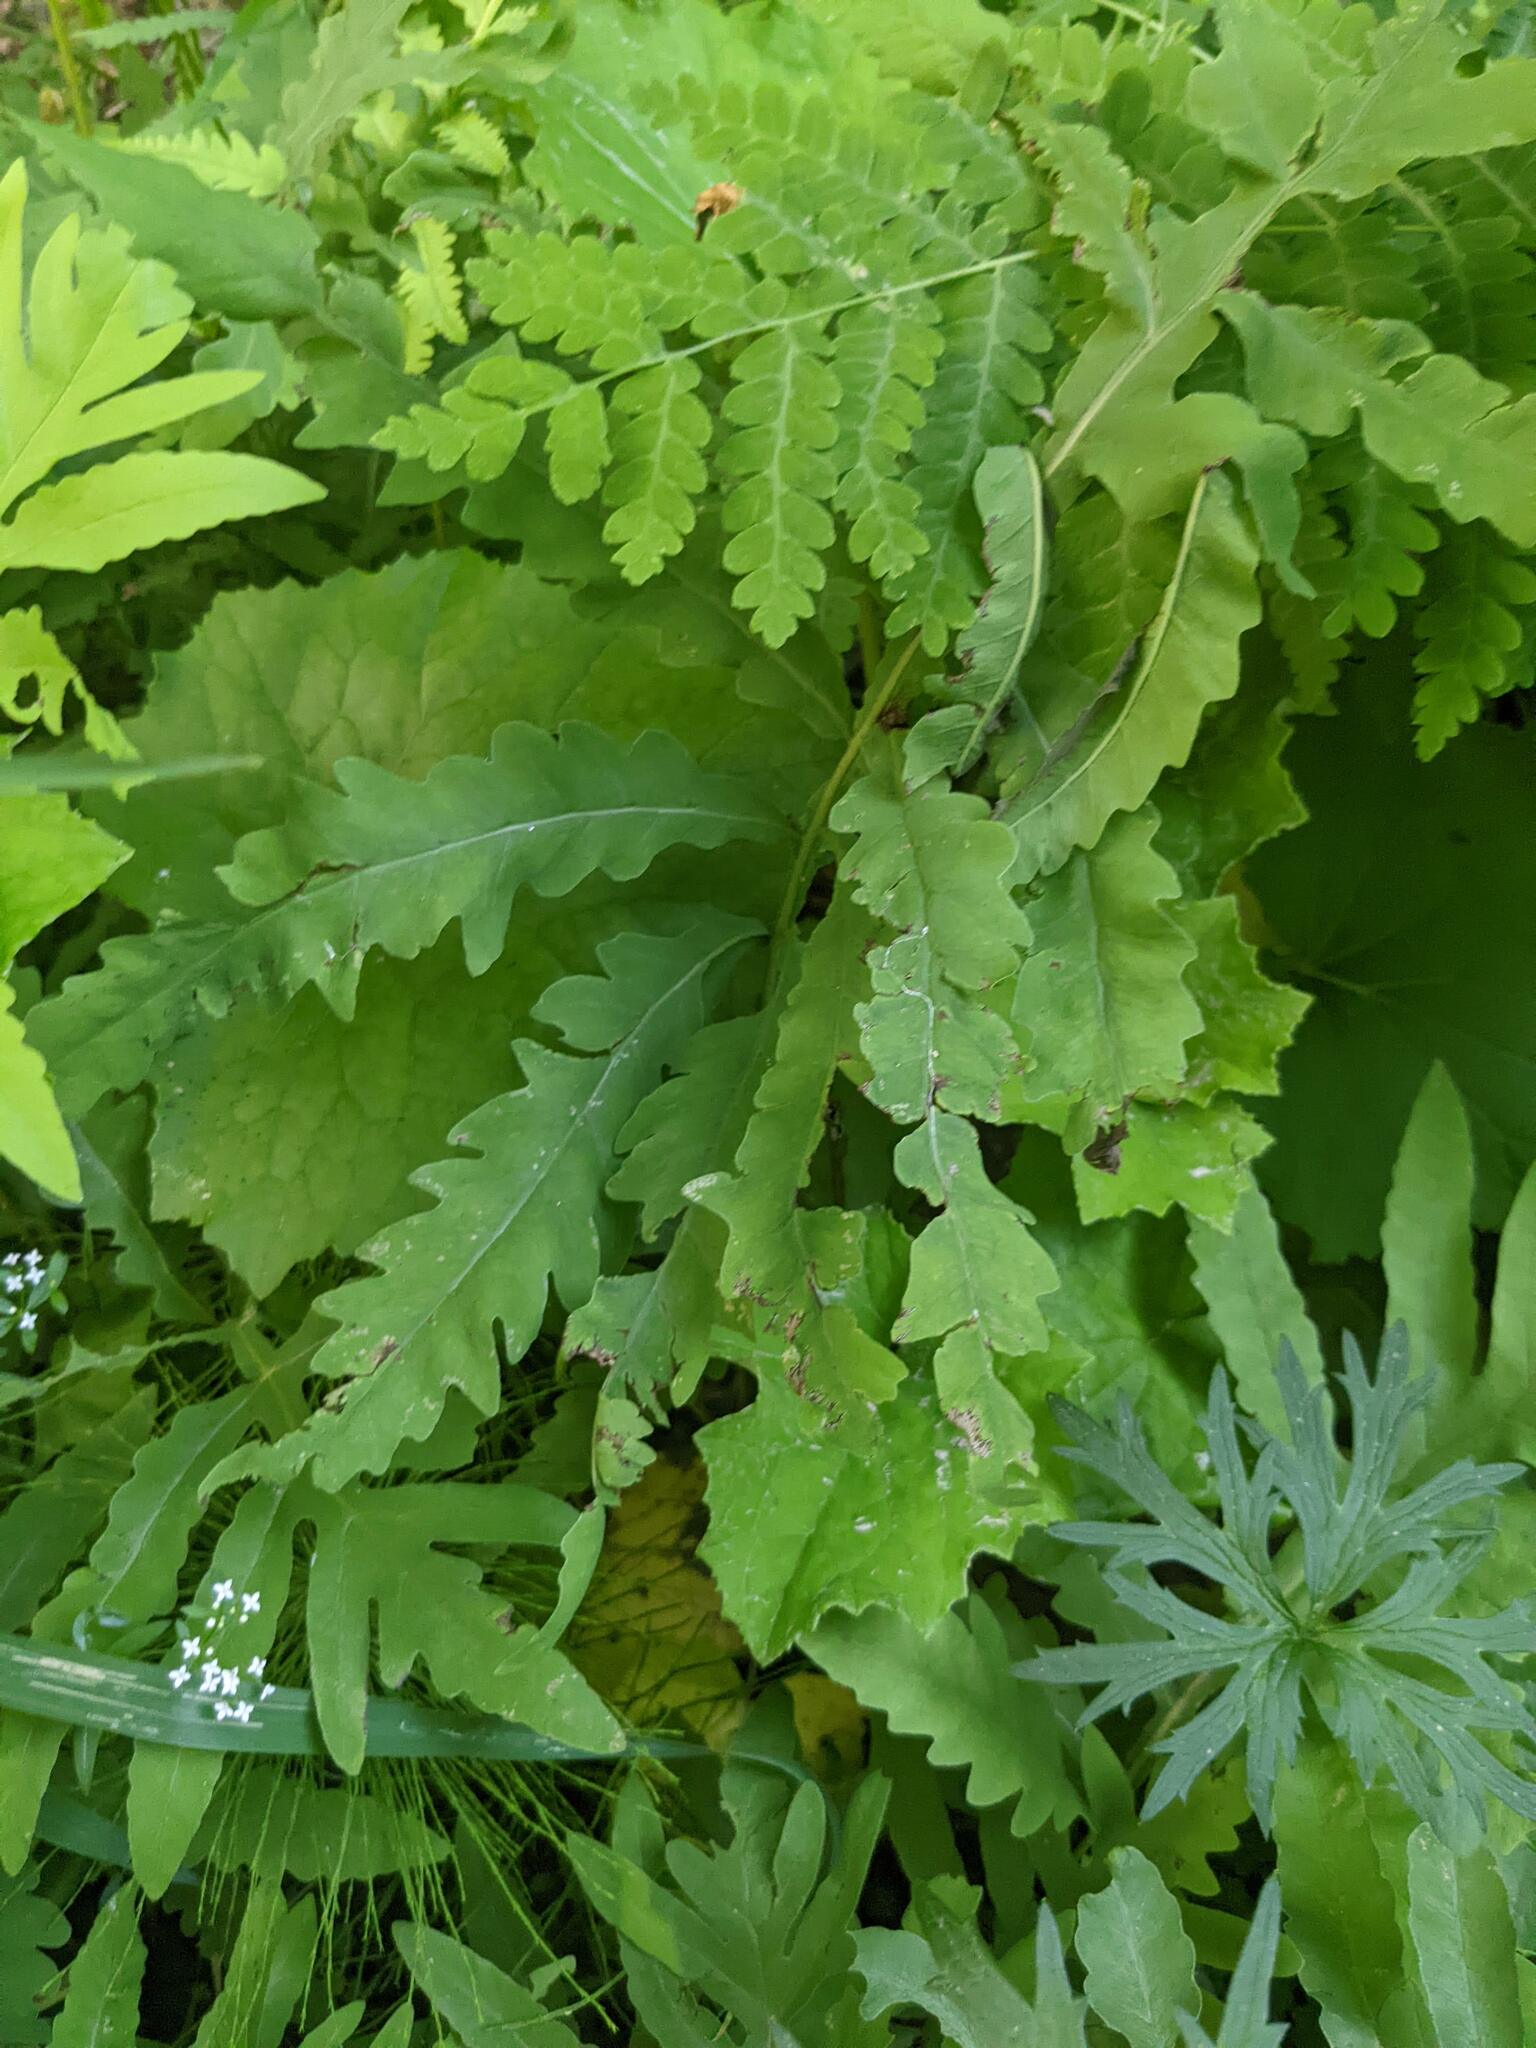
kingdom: Plantae
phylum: Tracheophyta
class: Polypodiopsida
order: Polypodiales
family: Onocleaceae
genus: Onoclea
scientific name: Onoclea sensibilis
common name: Sensitive fern
